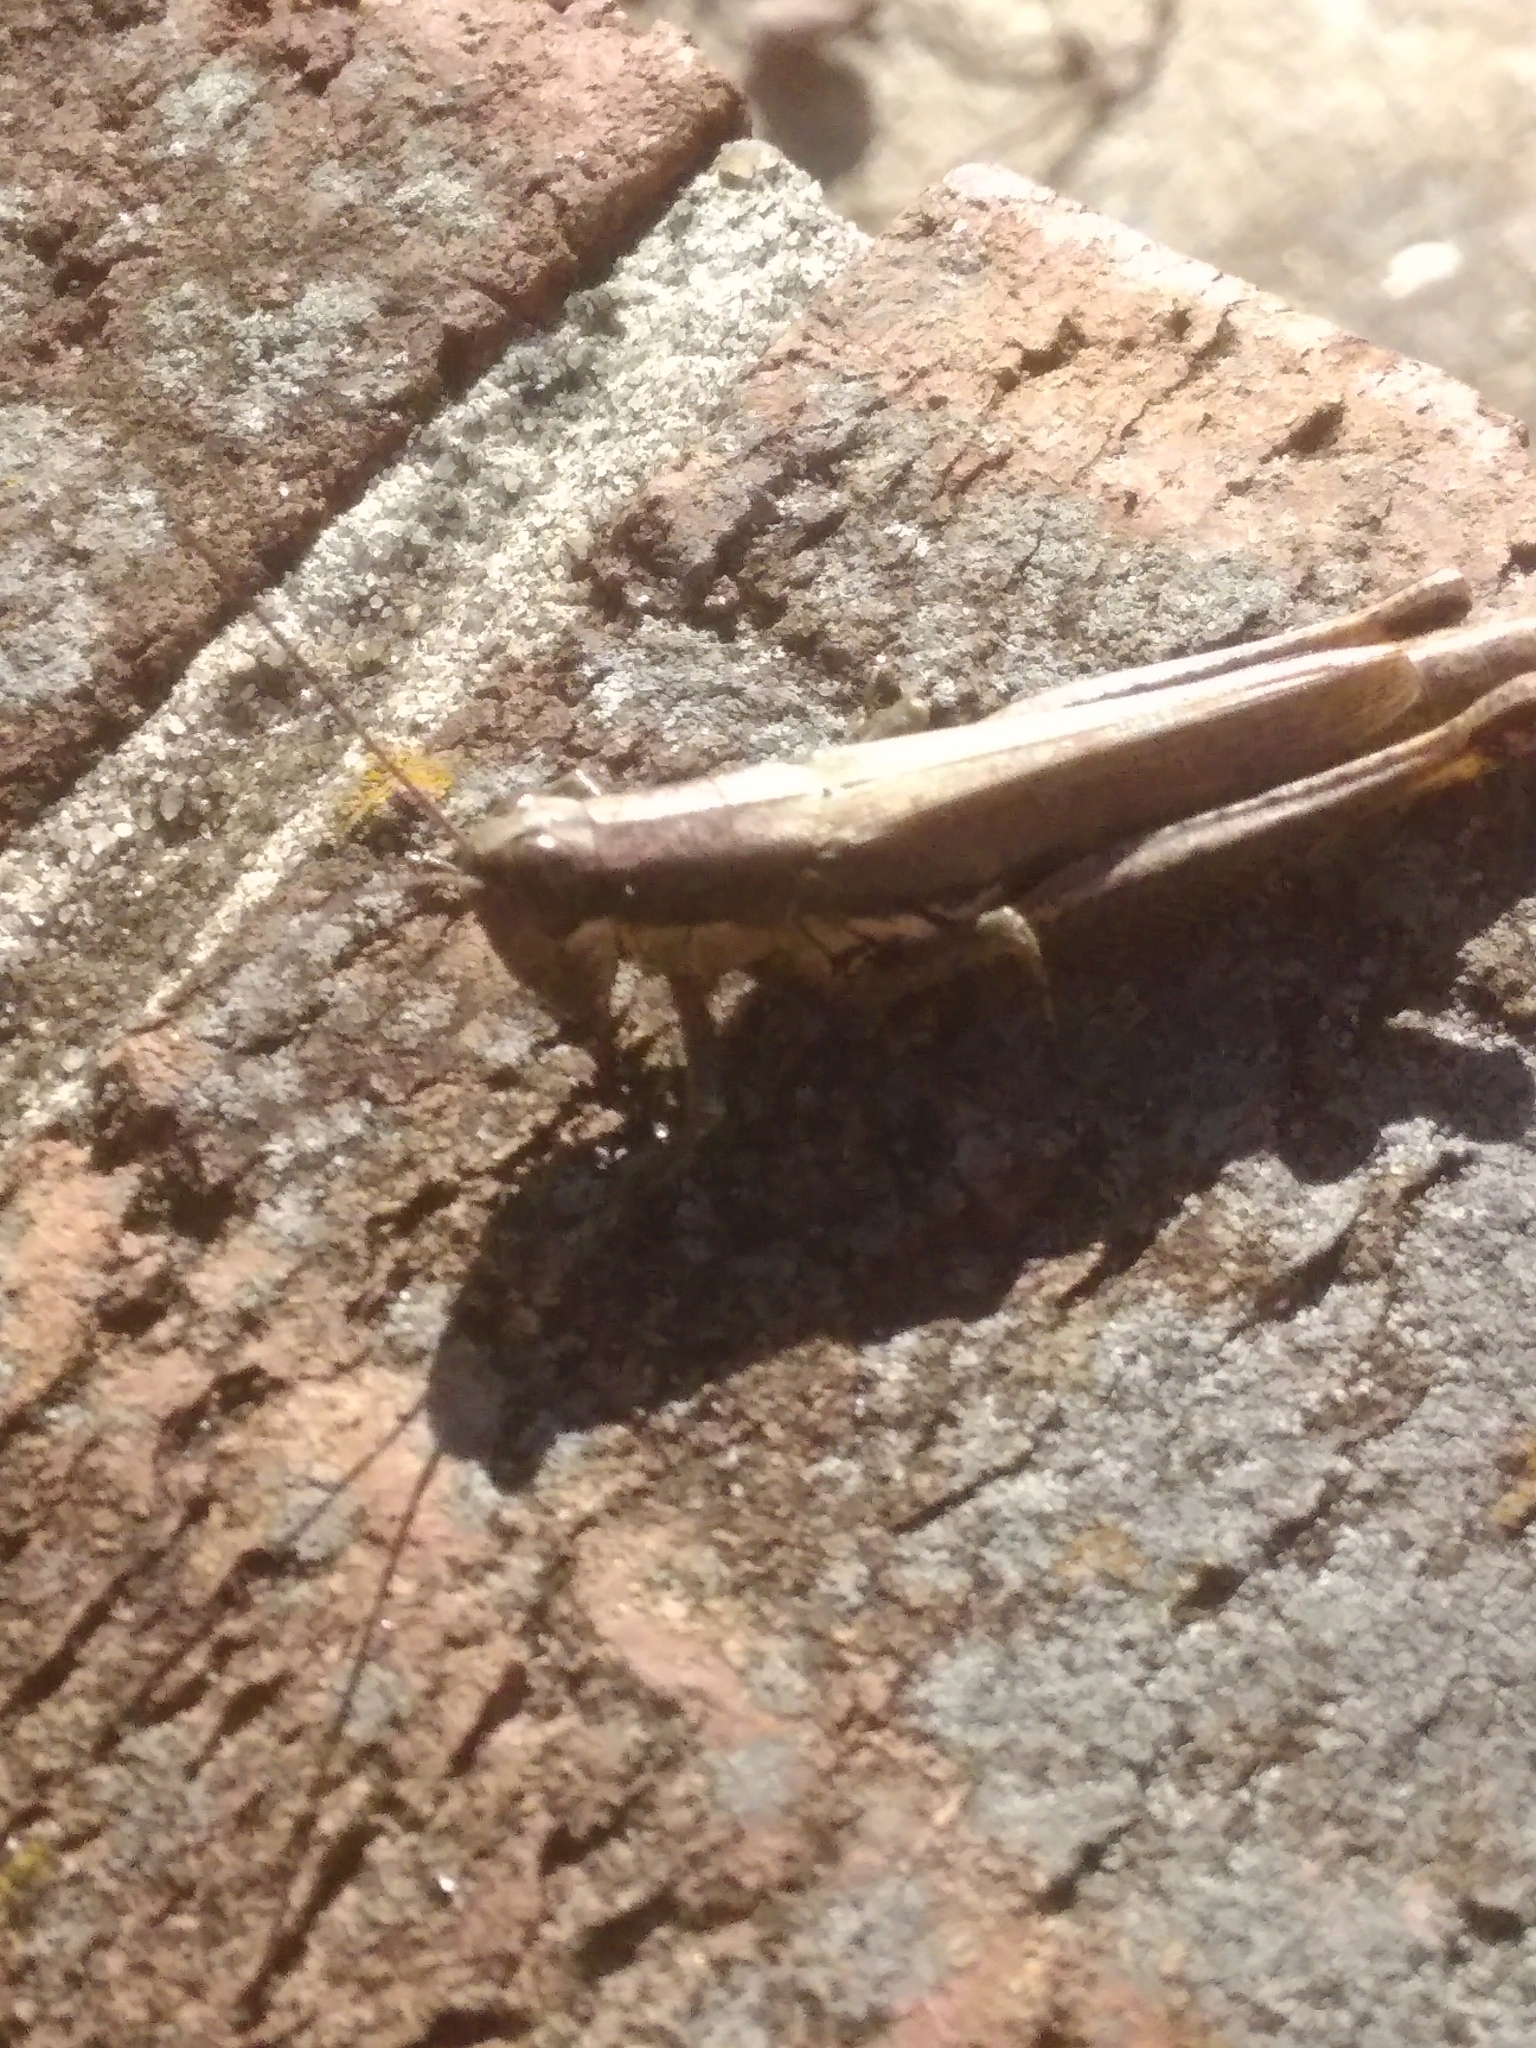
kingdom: Animalia
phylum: Arthropoda
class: Insecta
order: Orthoptera
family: Acrididae
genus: Paroxya
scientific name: Paroxya clavuligera
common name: Olive-green swamp grasshopper
